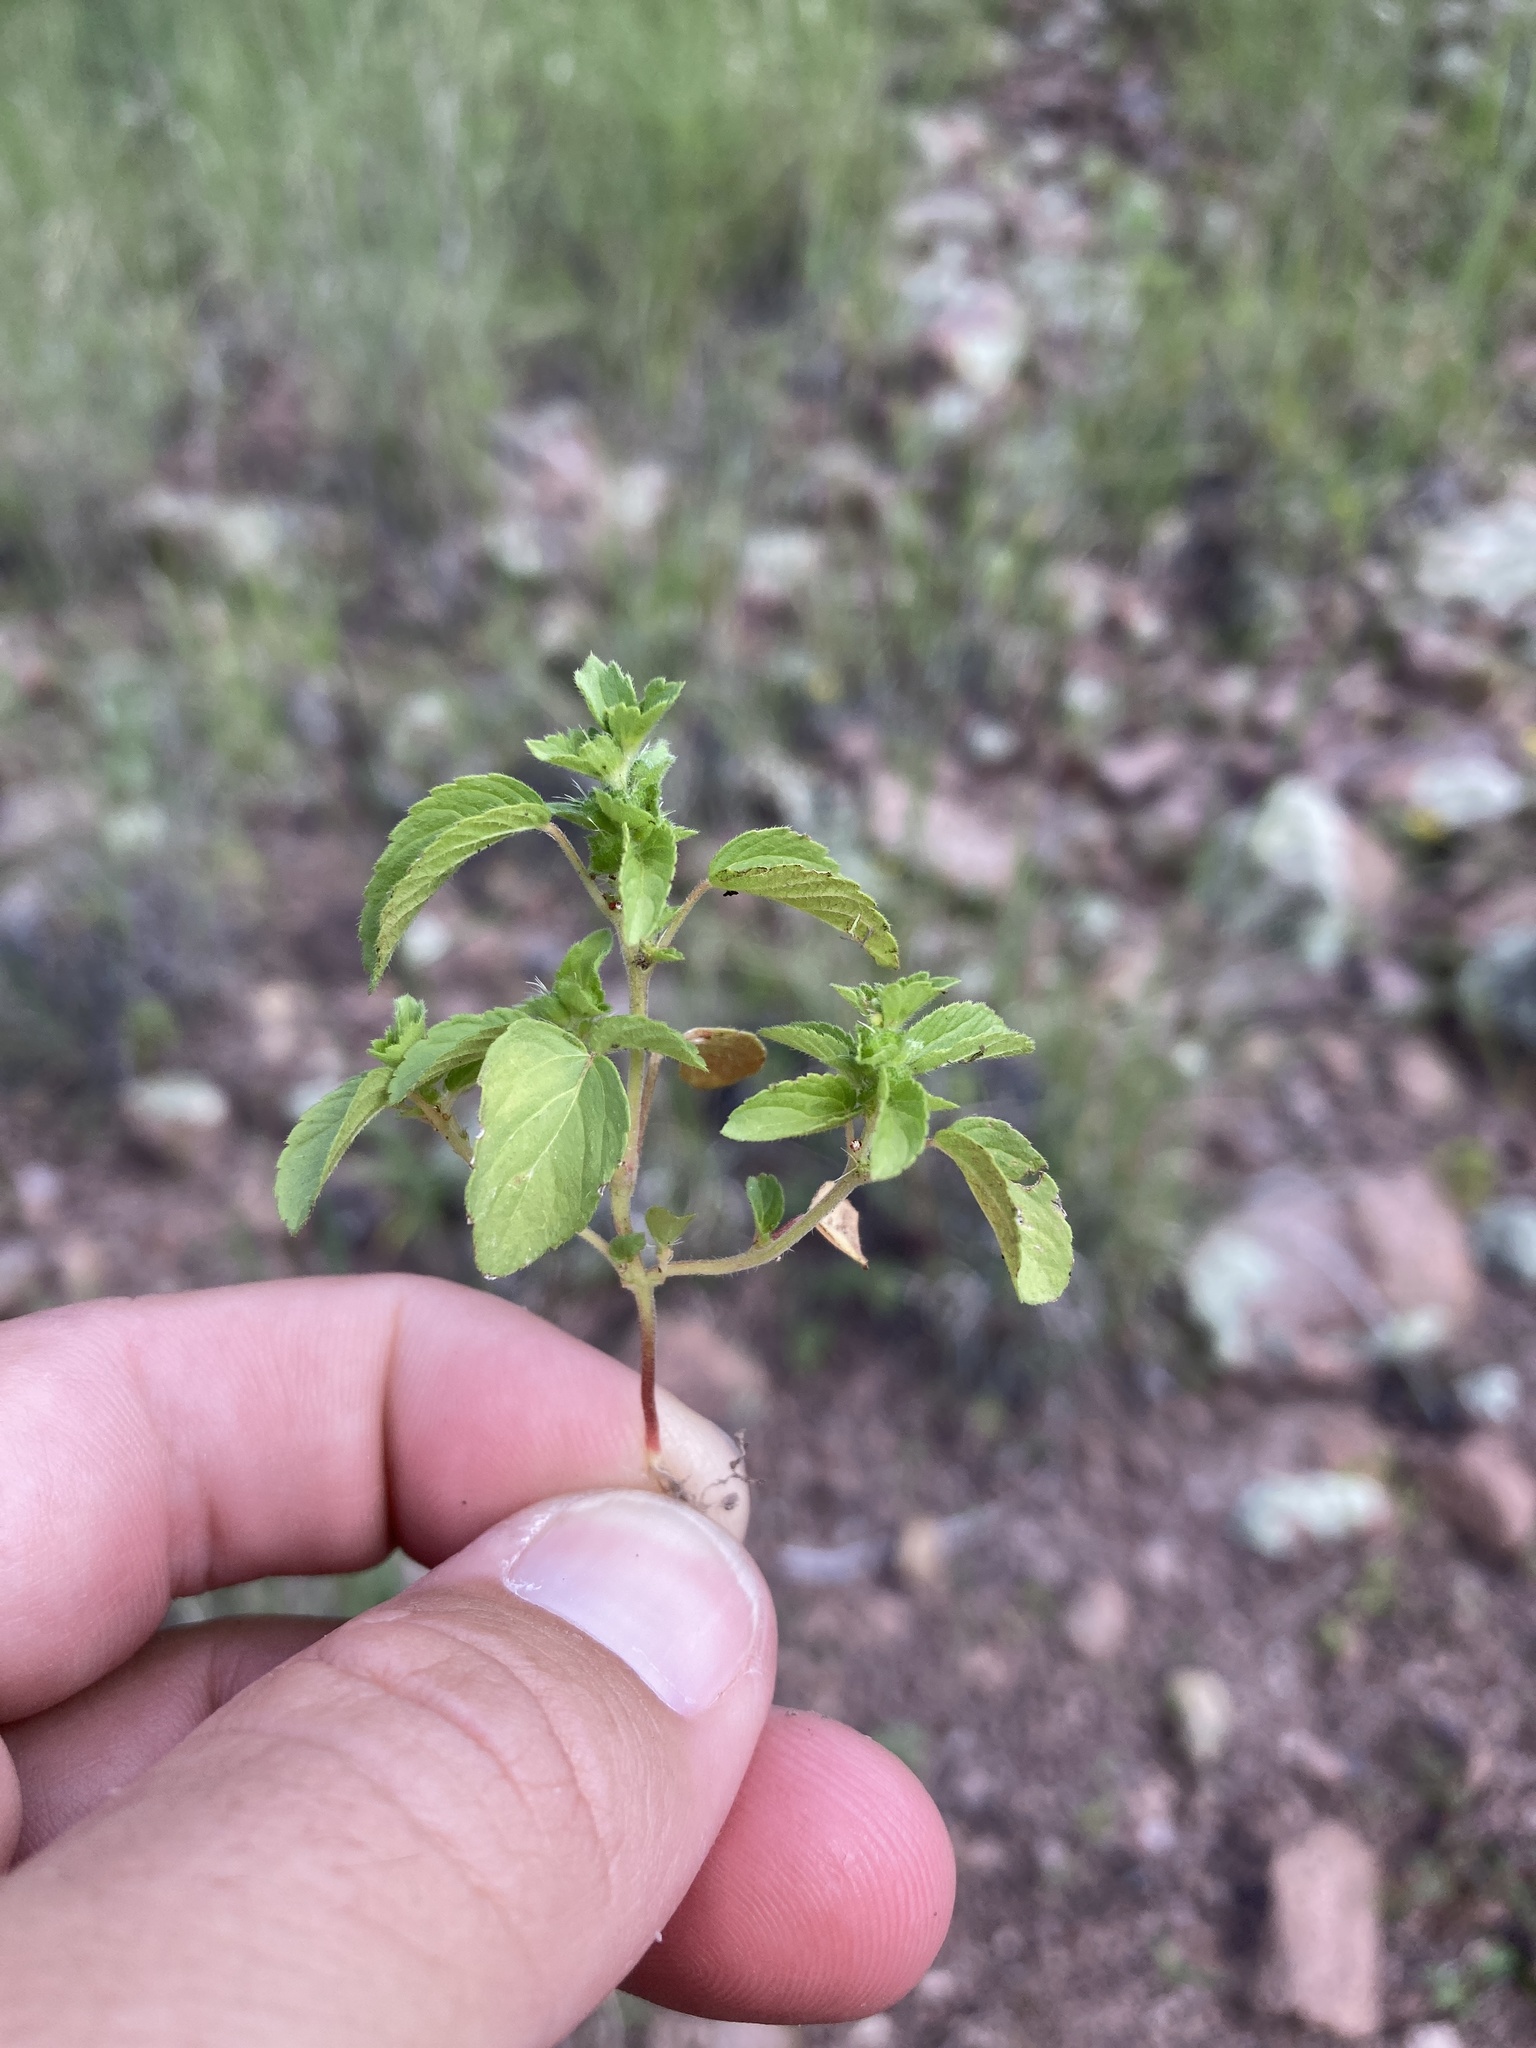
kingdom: Plantae
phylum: Tracheophyta
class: Magnoliopsida
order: Malpighiales
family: Euphorbiaceae
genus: Acalypha
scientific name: Acalypha neomexicana
